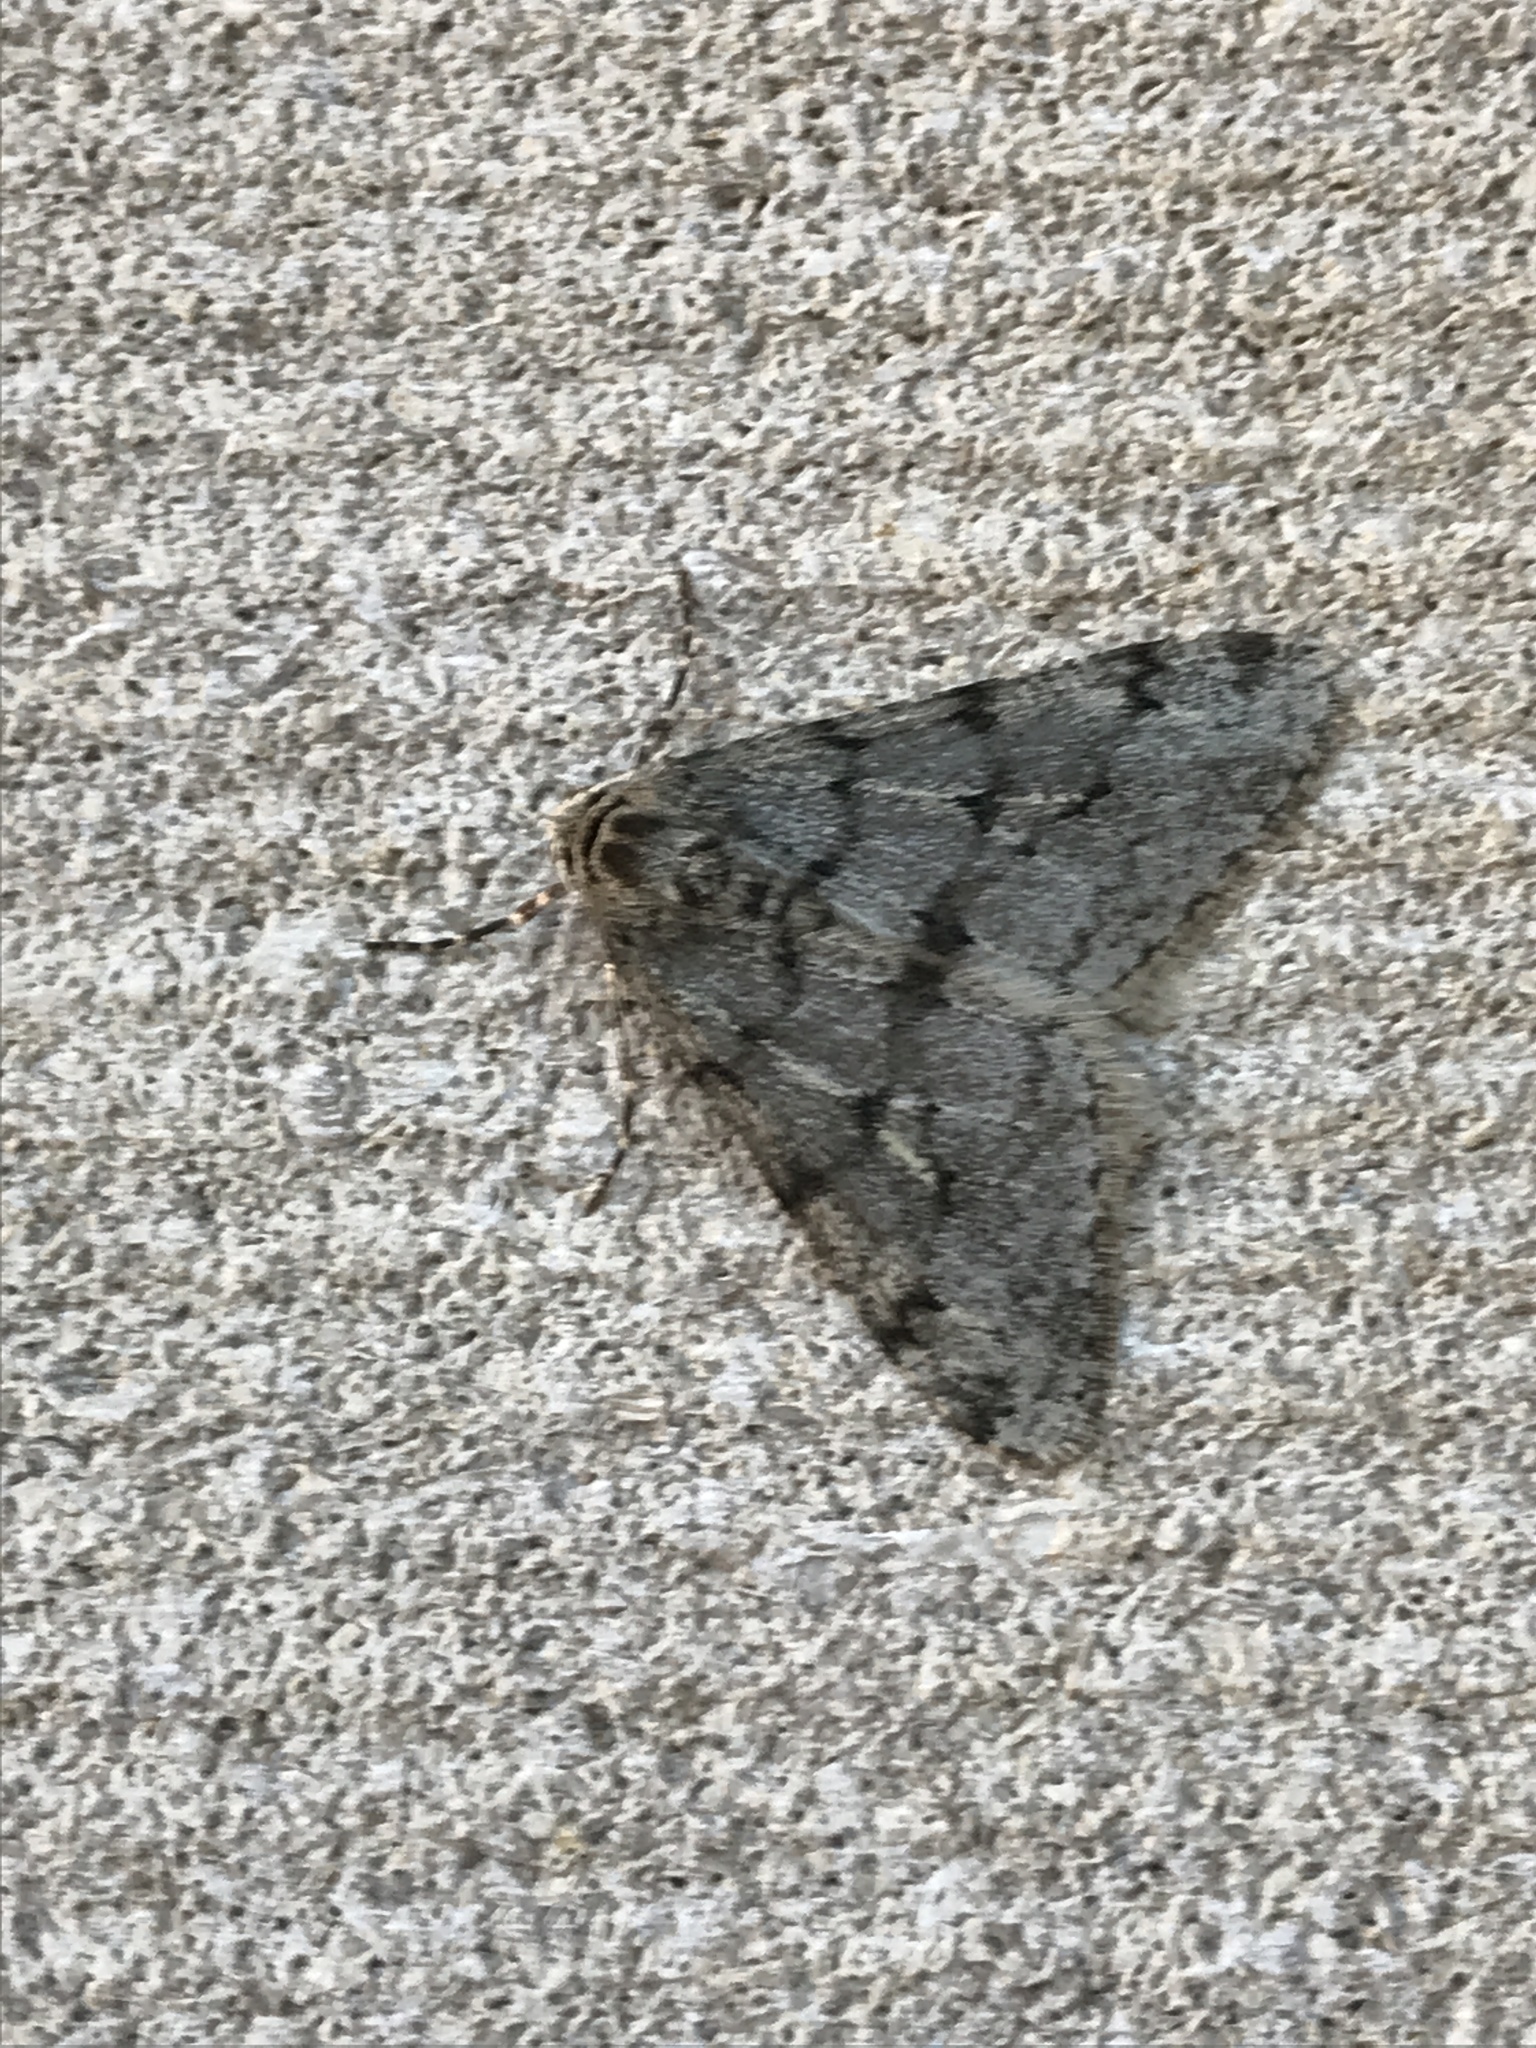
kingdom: Animalia
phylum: Arthropoda
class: Insecta
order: Lepidoptera
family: Geometridae
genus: Phigalia
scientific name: Phigalia strigataria
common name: Small phigalia
